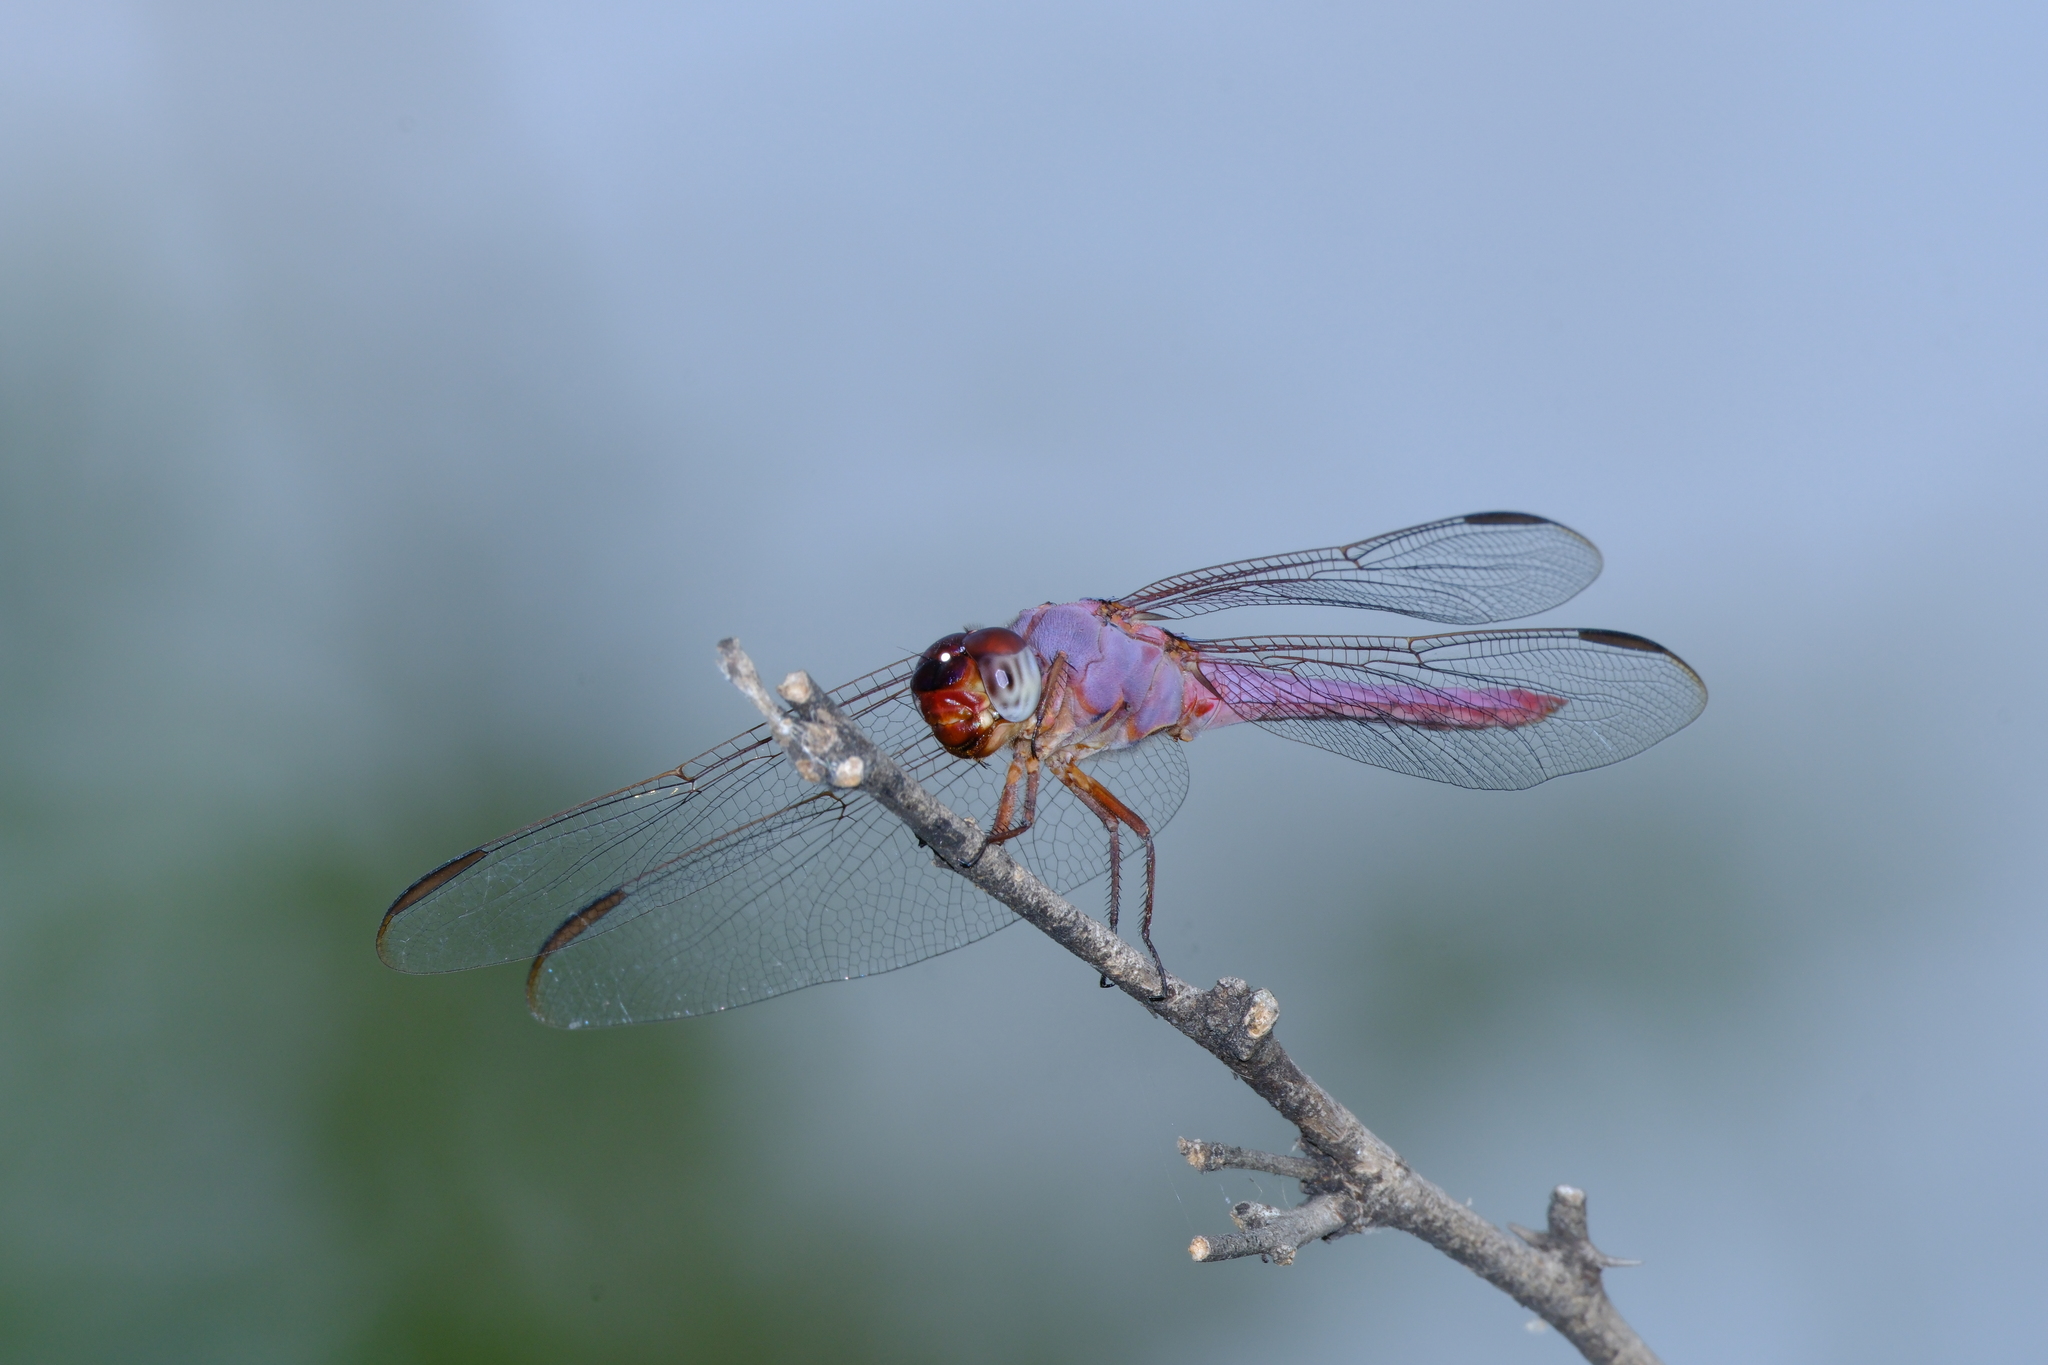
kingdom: Animalia
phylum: Arthropoda
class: Insecta
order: Odonata
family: Libellulidae
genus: Orthemis
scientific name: Orthemis ferruginea
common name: Roseate skimmer
